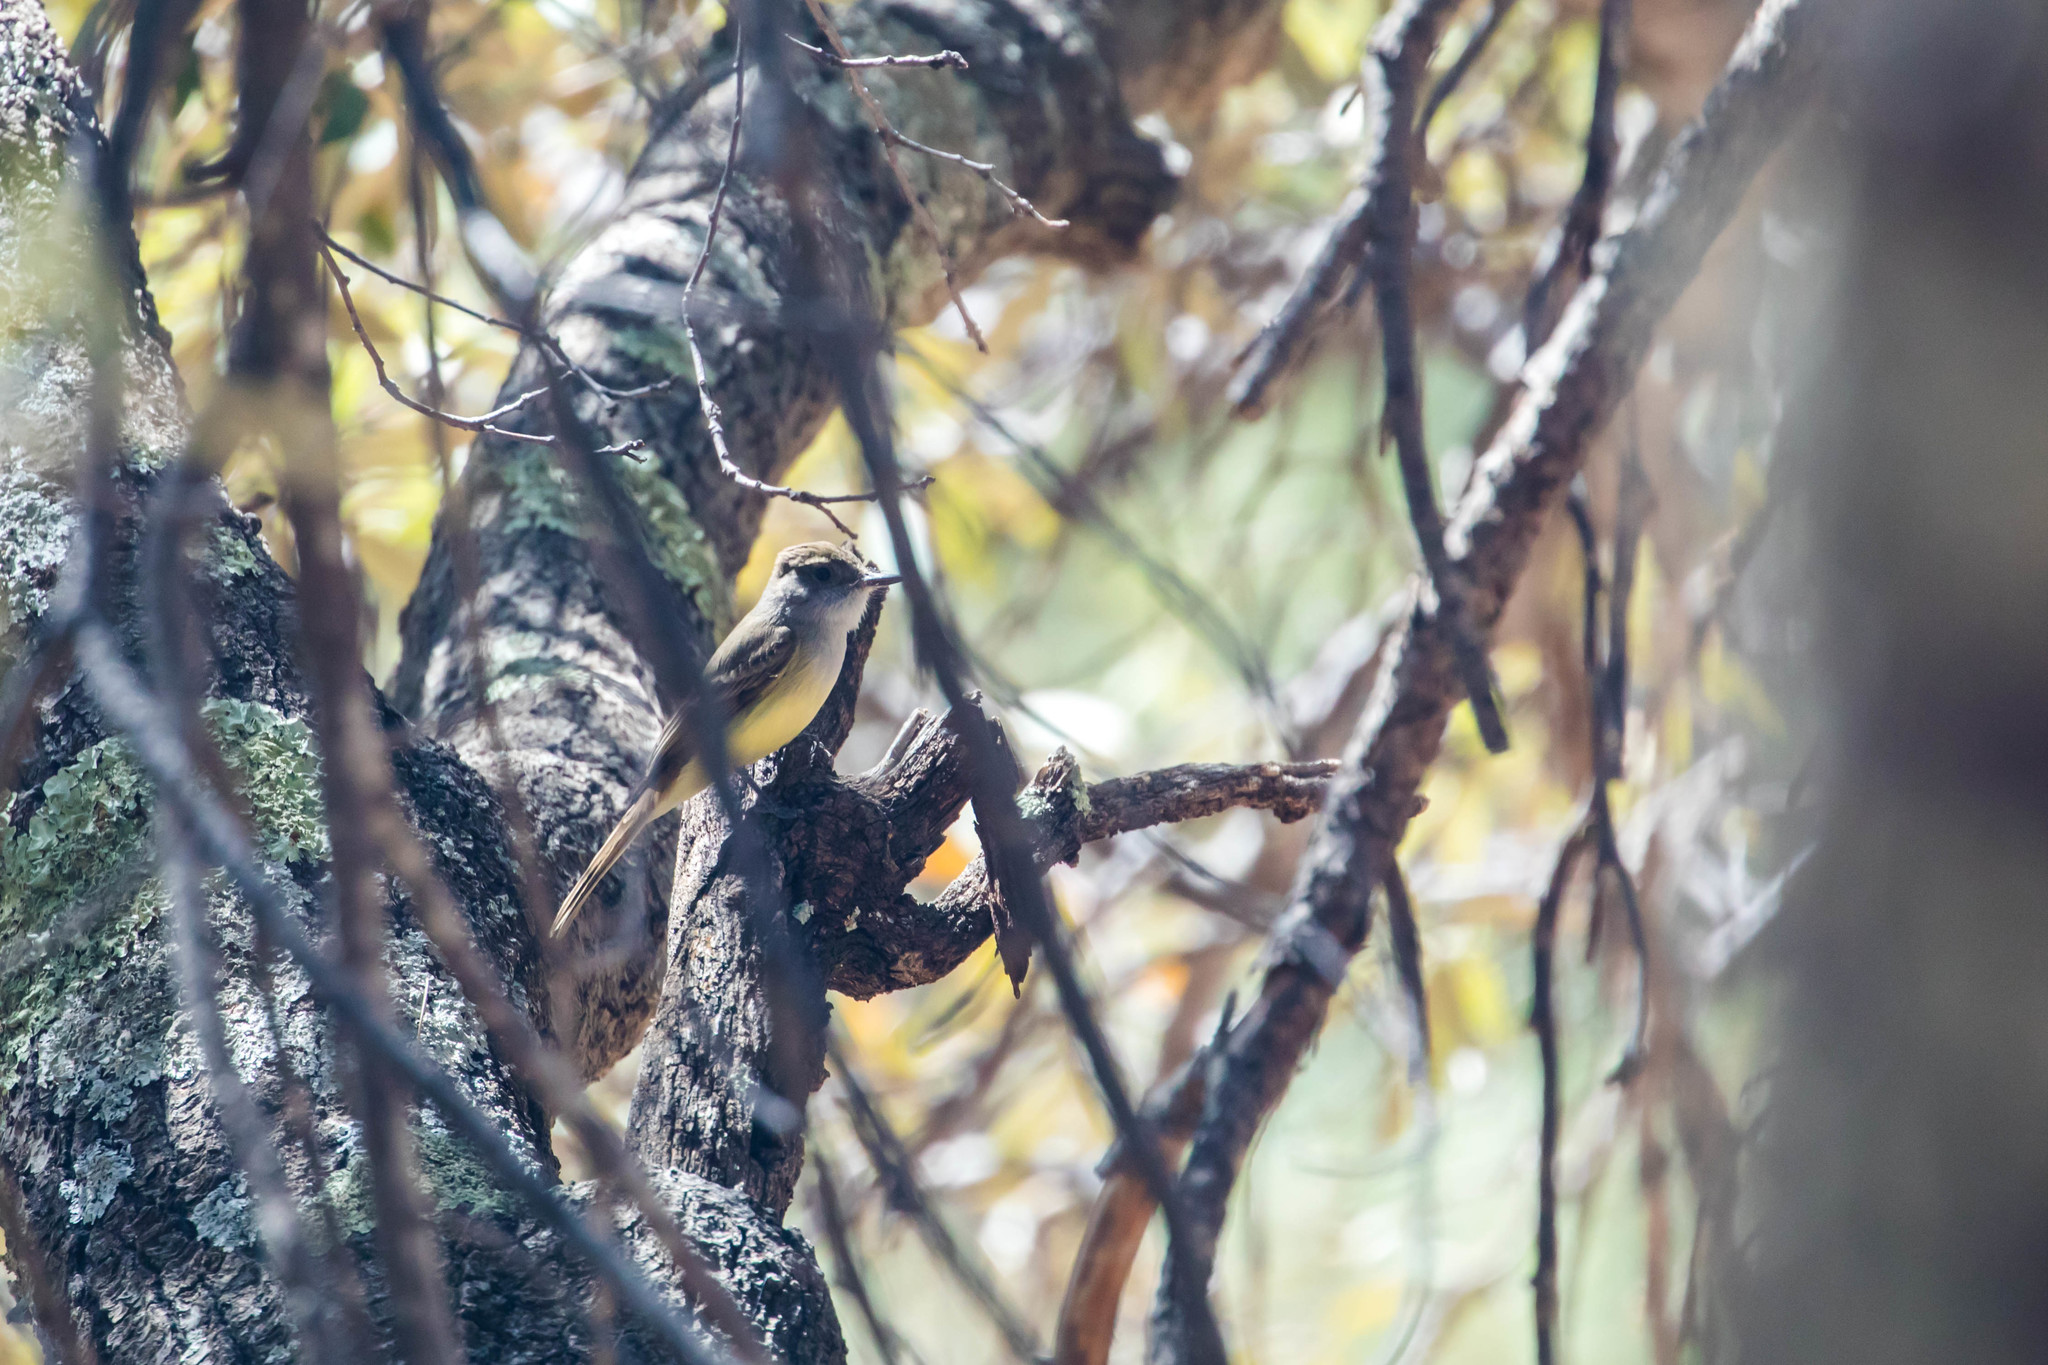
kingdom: Animalia
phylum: Chordata
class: Aves
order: Passeriformes
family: Tyrannidae
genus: Myiarchus
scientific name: Myiarchus tuberculifer
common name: Dusky-capped flycatcher
